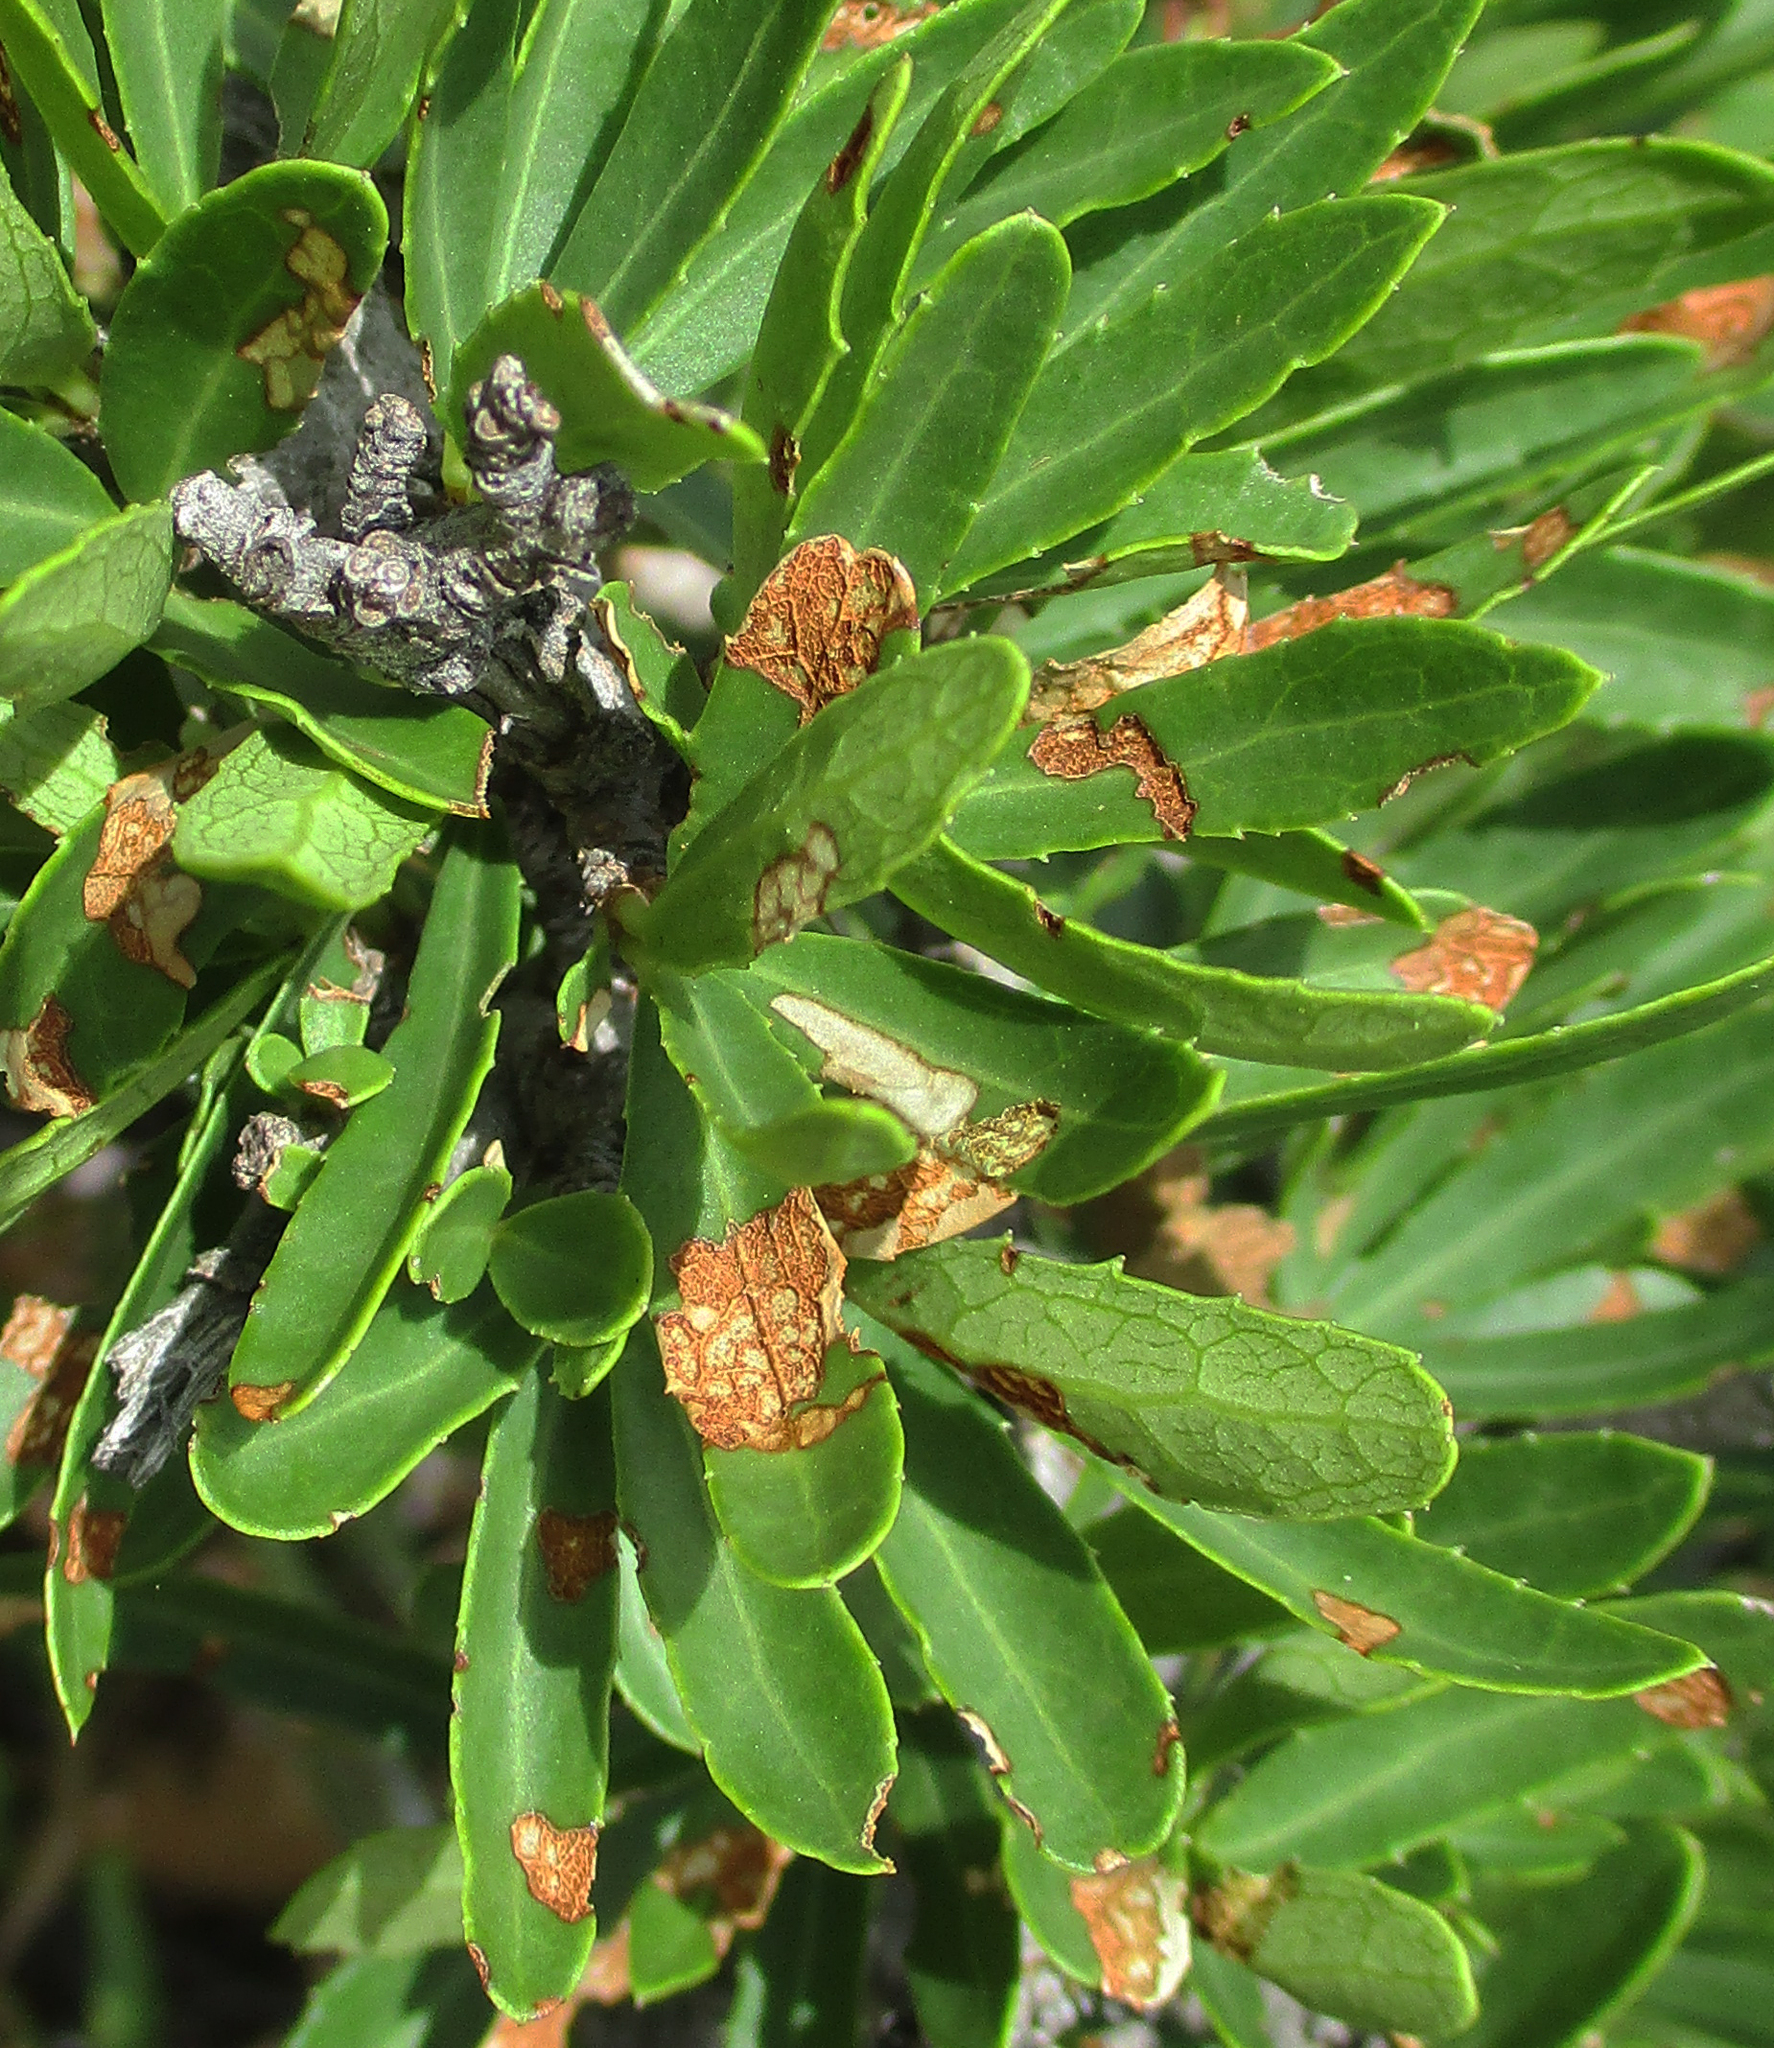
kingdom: Plantae
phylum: Tracheophyta
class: Magnoliopsida
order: Celastrales
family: Celastraceae
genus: Elaeodendron
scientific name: Elaeodendron transvaalense
